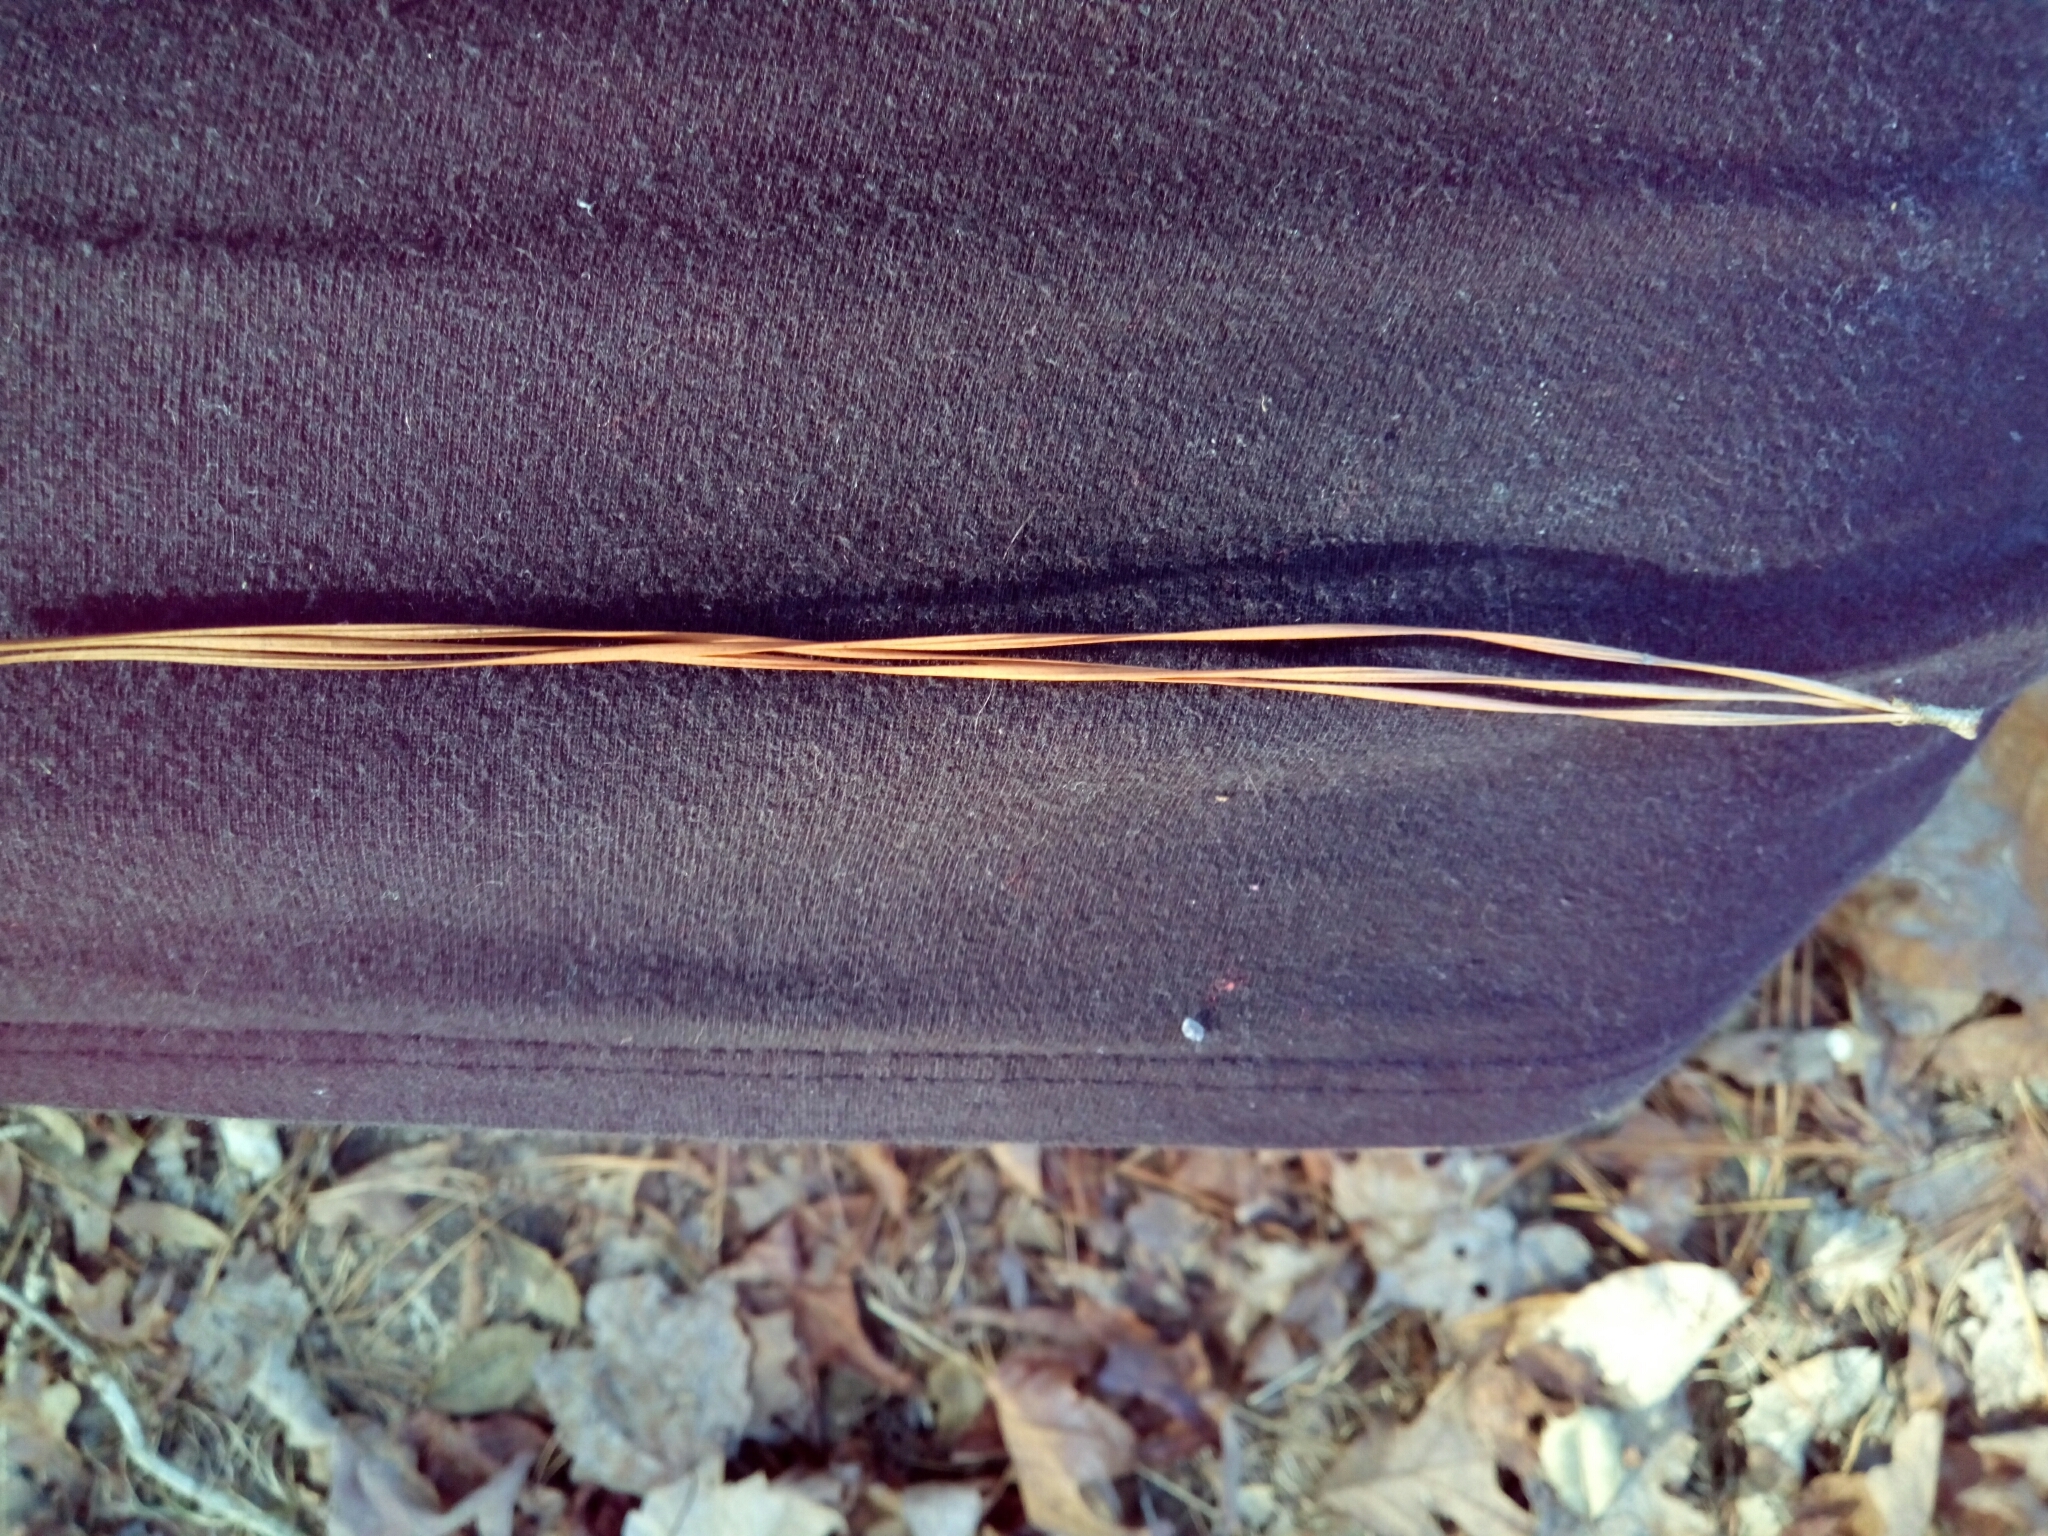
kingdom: Plantae
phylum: Tracheophyta
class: Pinopsida
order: Pinales
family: Pinaceae
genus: Pinus
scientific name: Pinus echinata
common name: Shortleaf pine
